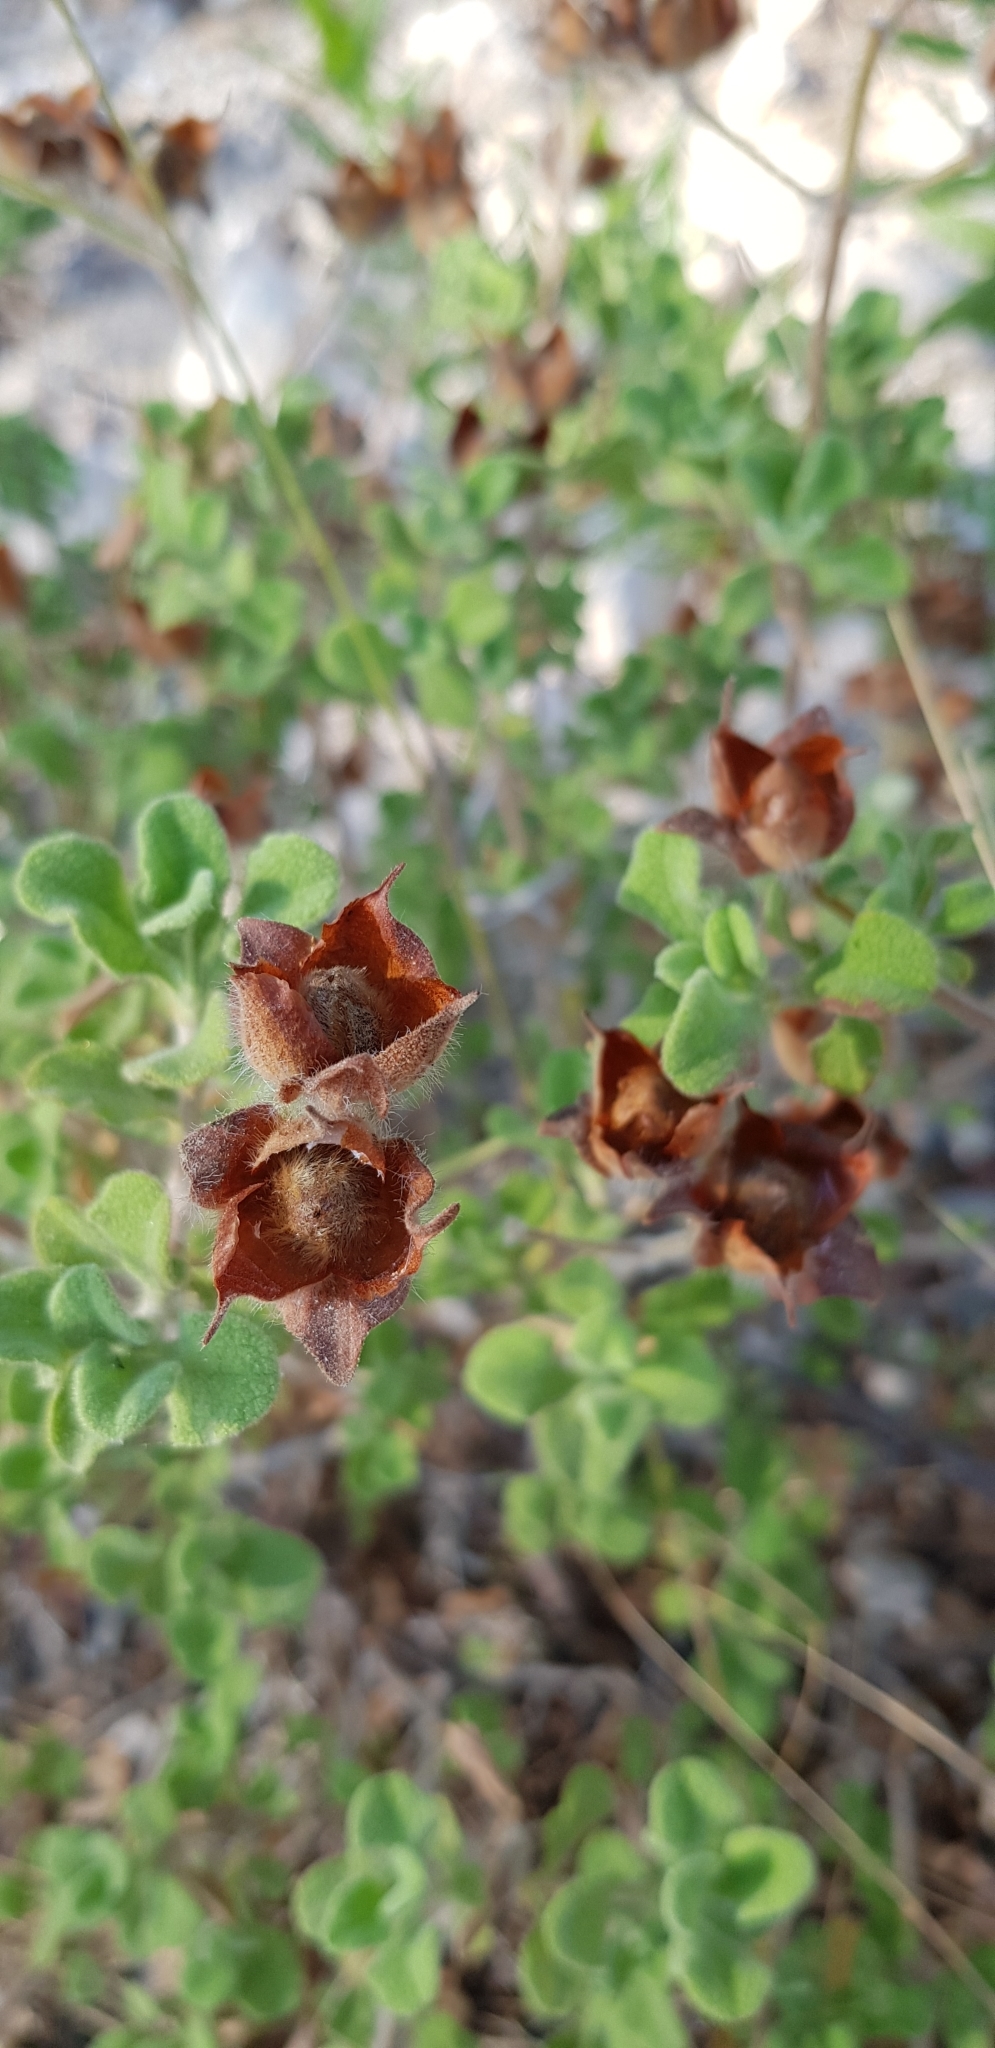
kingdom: Plantae
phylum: Tracheophyta
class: Magnoliopsida
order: Malvales
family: Cistaceae
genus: Cistus
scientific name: Cistus creticus
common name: Cretan rockrose
